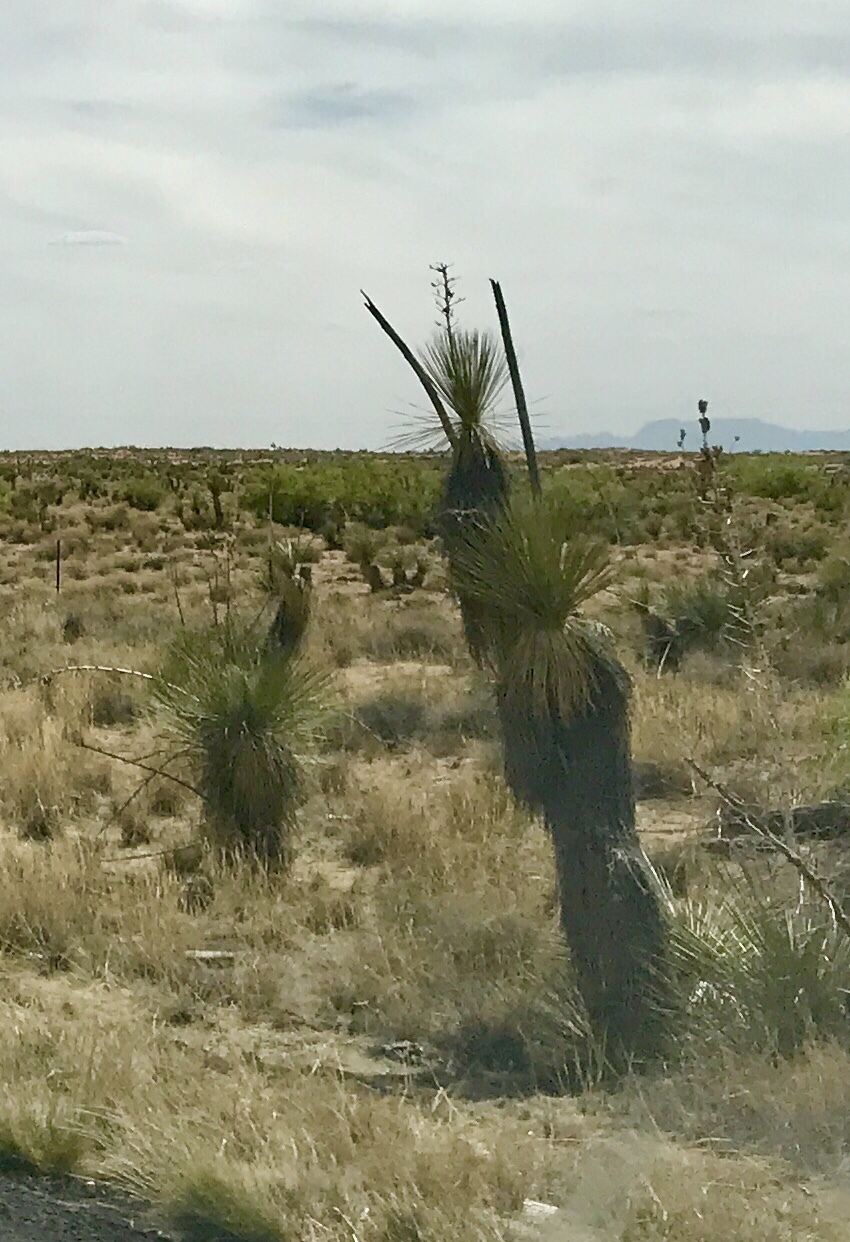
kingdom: Plantae
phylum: Tracheophyta
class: Liliopsida
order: Asparagales
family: Asparagaceae
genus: Yucca
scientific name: Yucca elata
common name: Palmella
